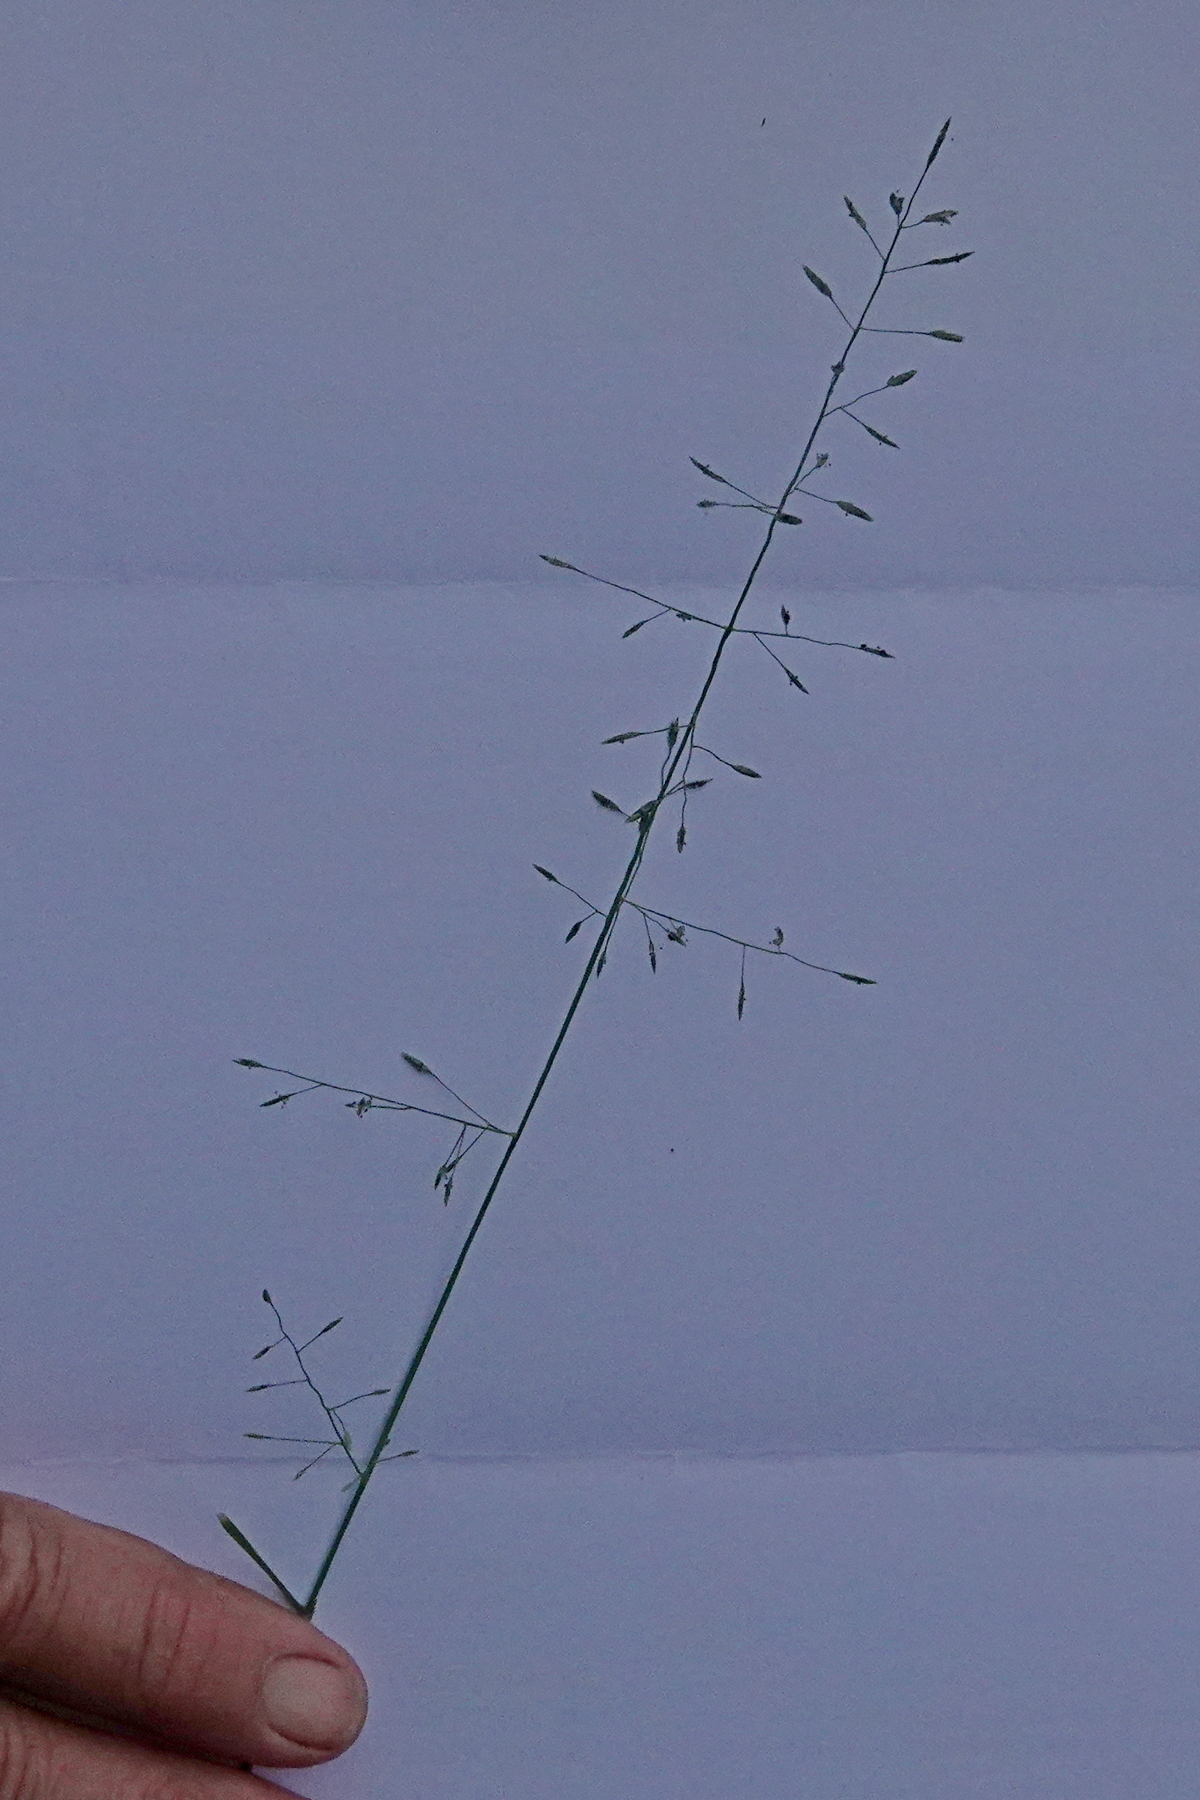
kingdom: Plantae
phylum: Tracheophyta
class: Liliopsida
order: Poales
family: Poaceae
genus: Eragrostis
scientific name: Eragrostis leptostachya
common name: Australian lovegrass
